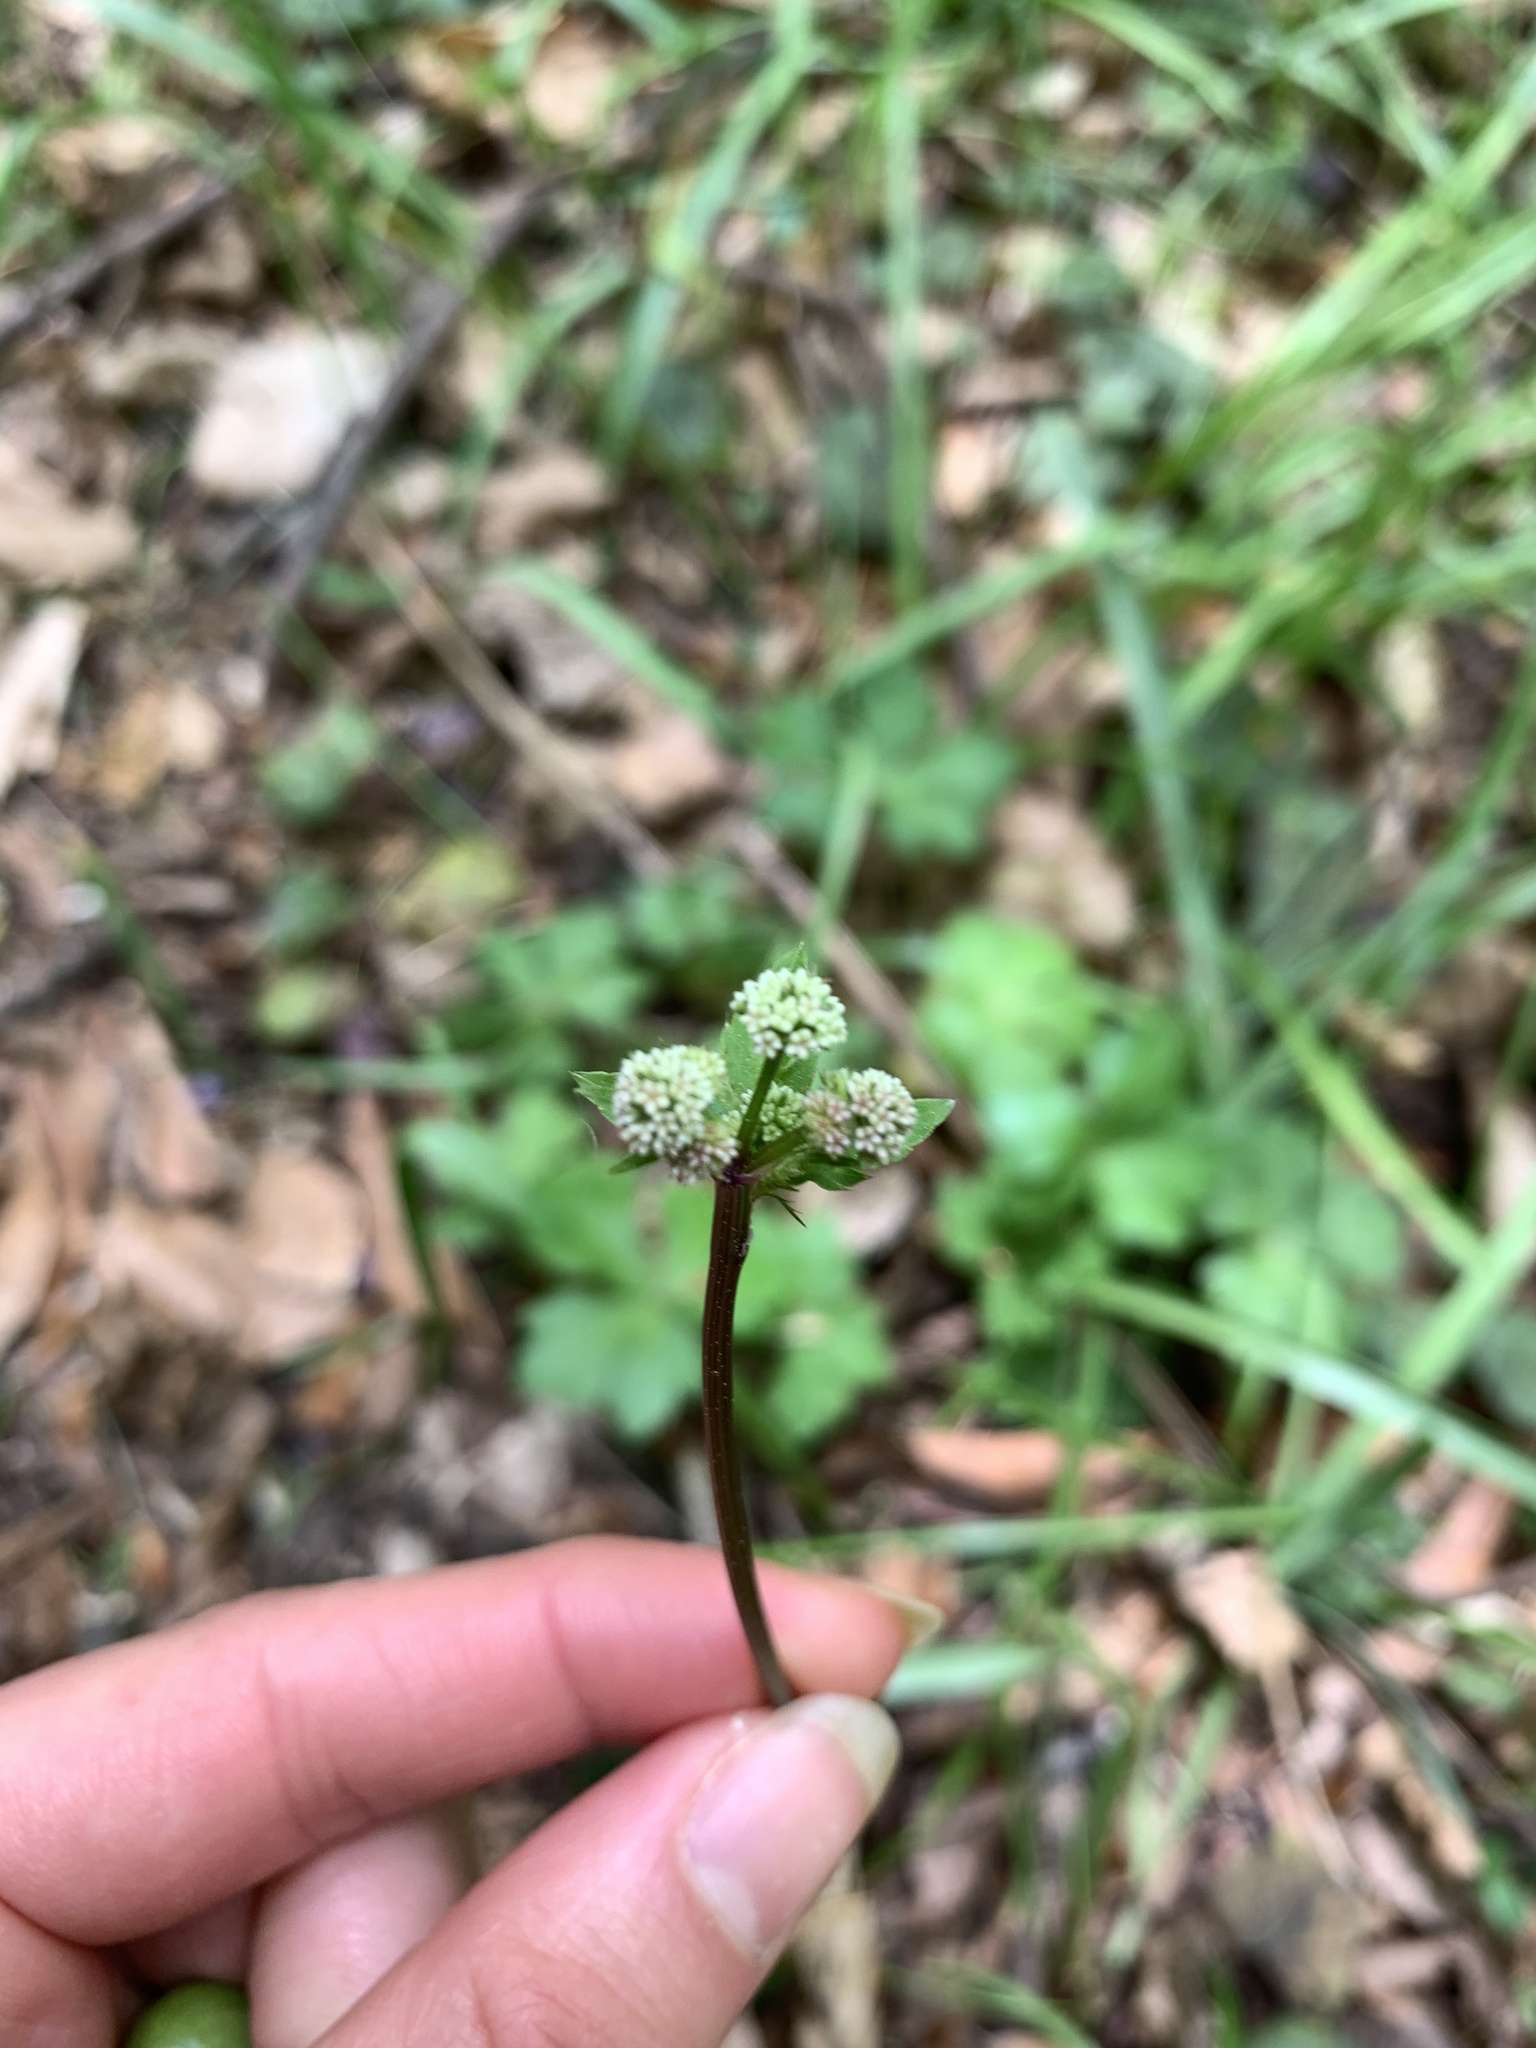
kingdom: Plantae
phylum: Tracheophyta
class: Magnoliopsida
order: Apiales
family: Apiaceae
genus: Sanicula
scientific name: Sanicula europaea
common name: Sanicle
